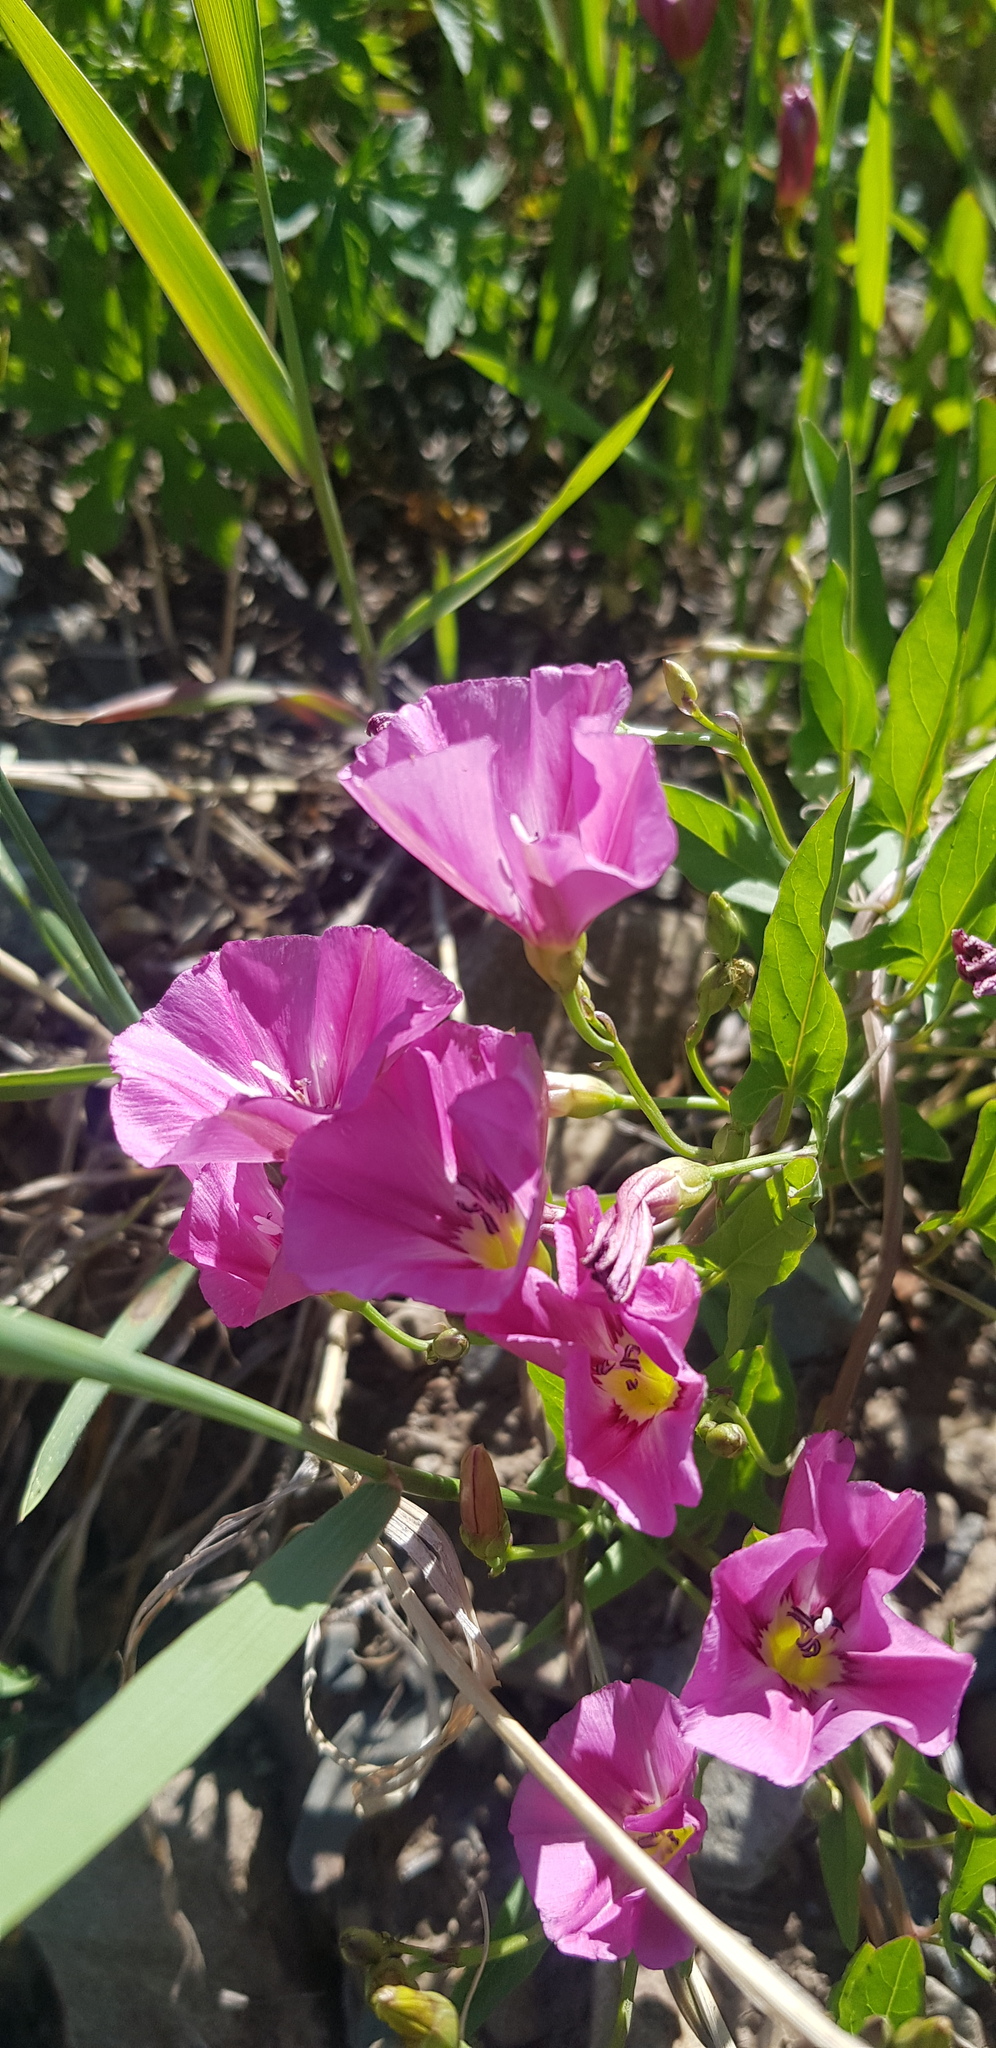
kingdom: Plantae
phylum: Tracheophyta
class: Magnoliopsida
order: Solanales
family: Convolvulaceae
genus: Convolvulus
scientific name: Convolvulus arvensis
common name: Field bindweed
